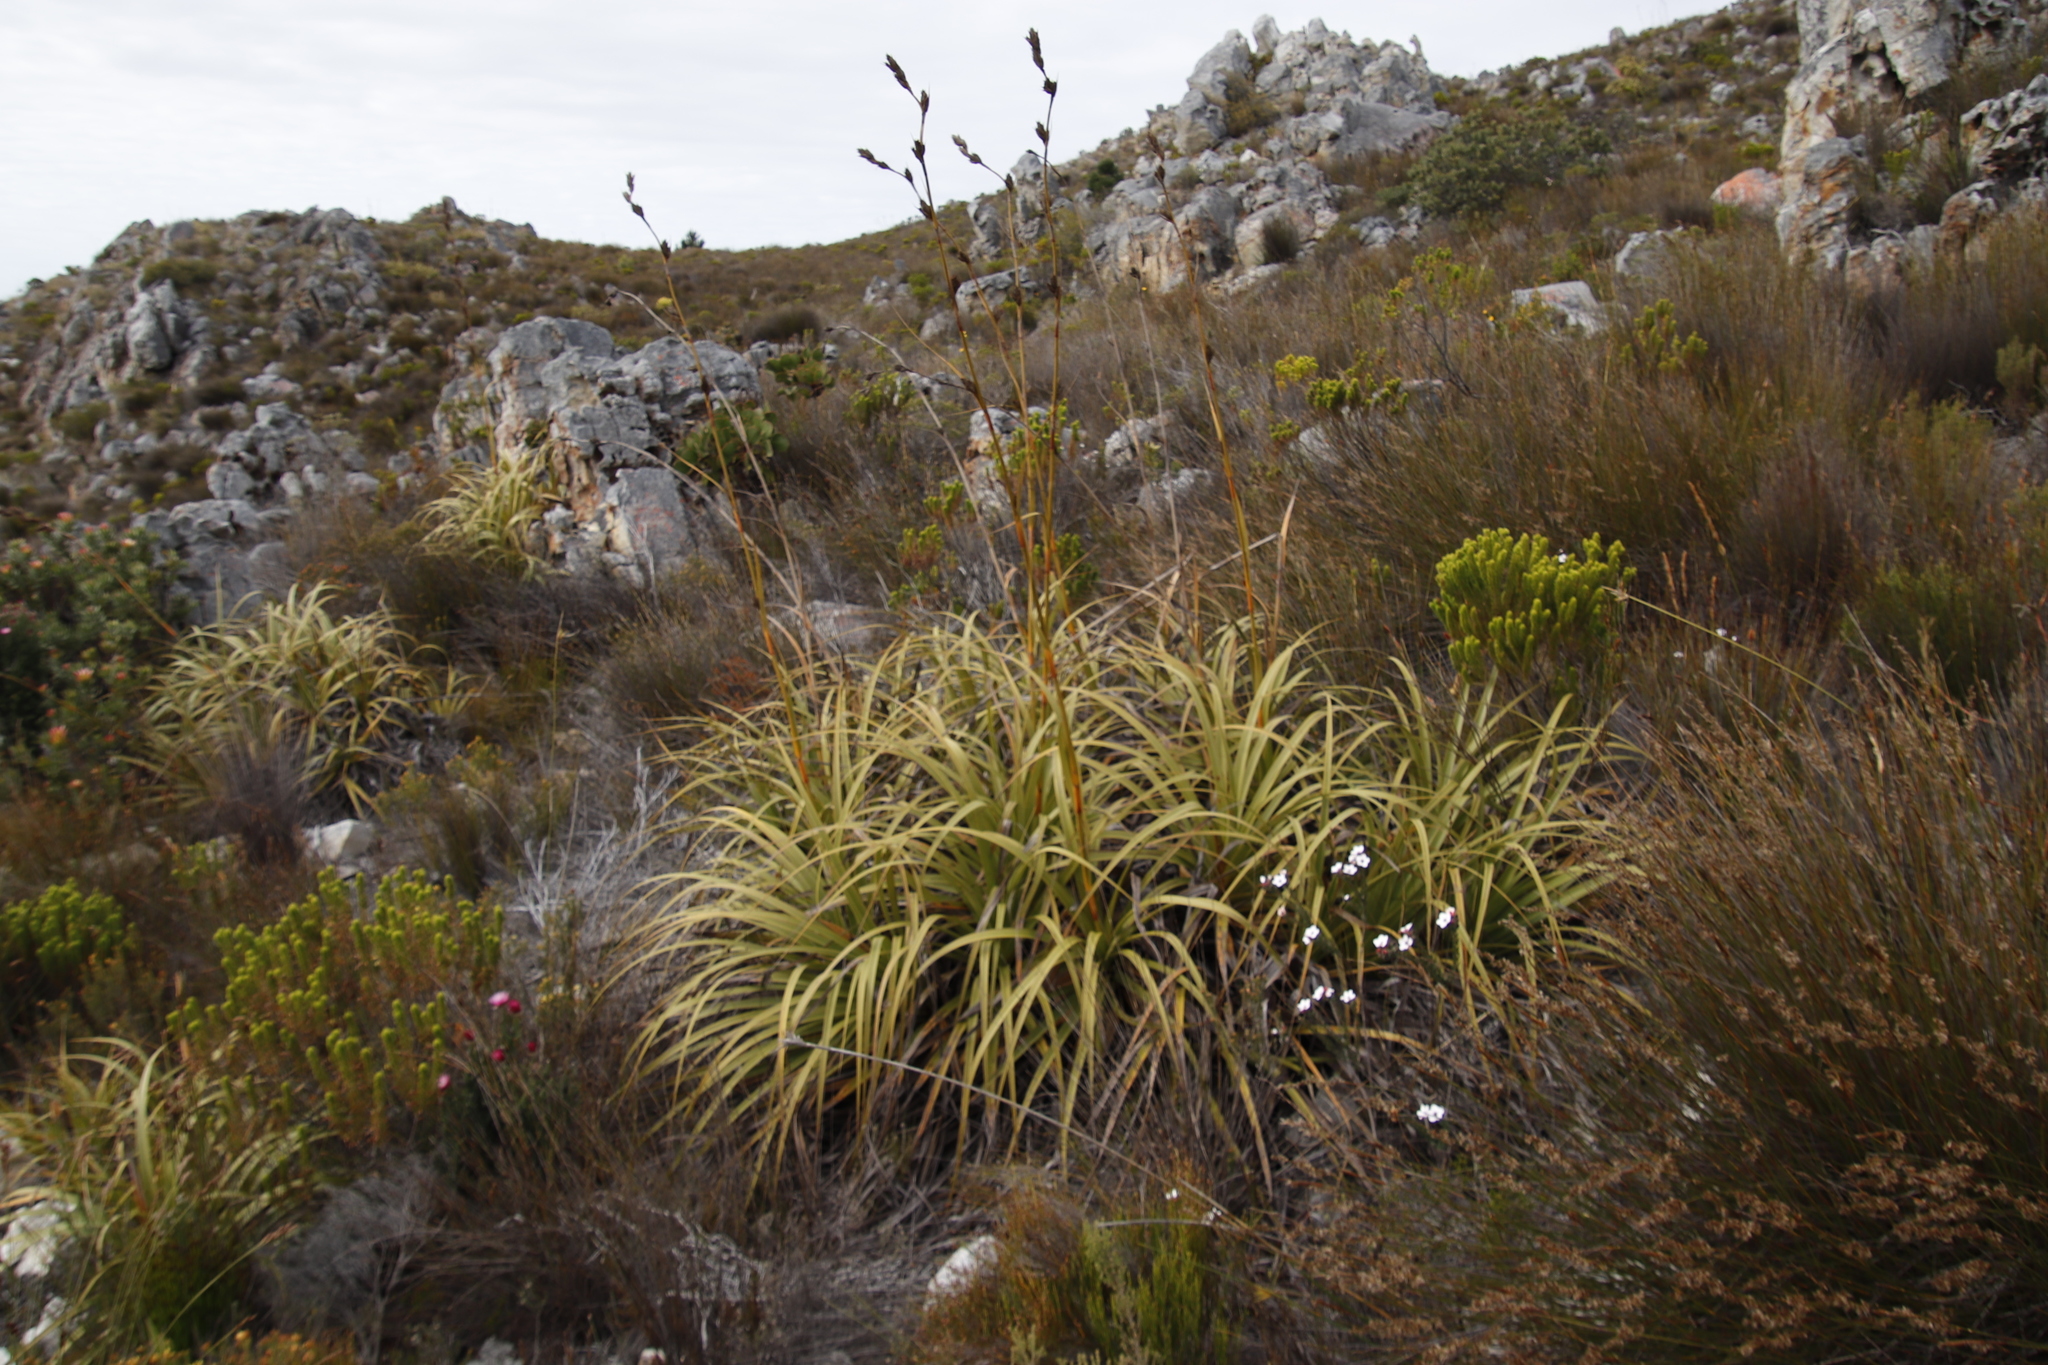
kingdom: Plantae
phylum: Tracheophyta
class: Liliopsida
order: Poales
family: Cyperaceae
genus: Tetraria
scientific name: Tetraria thermalis
